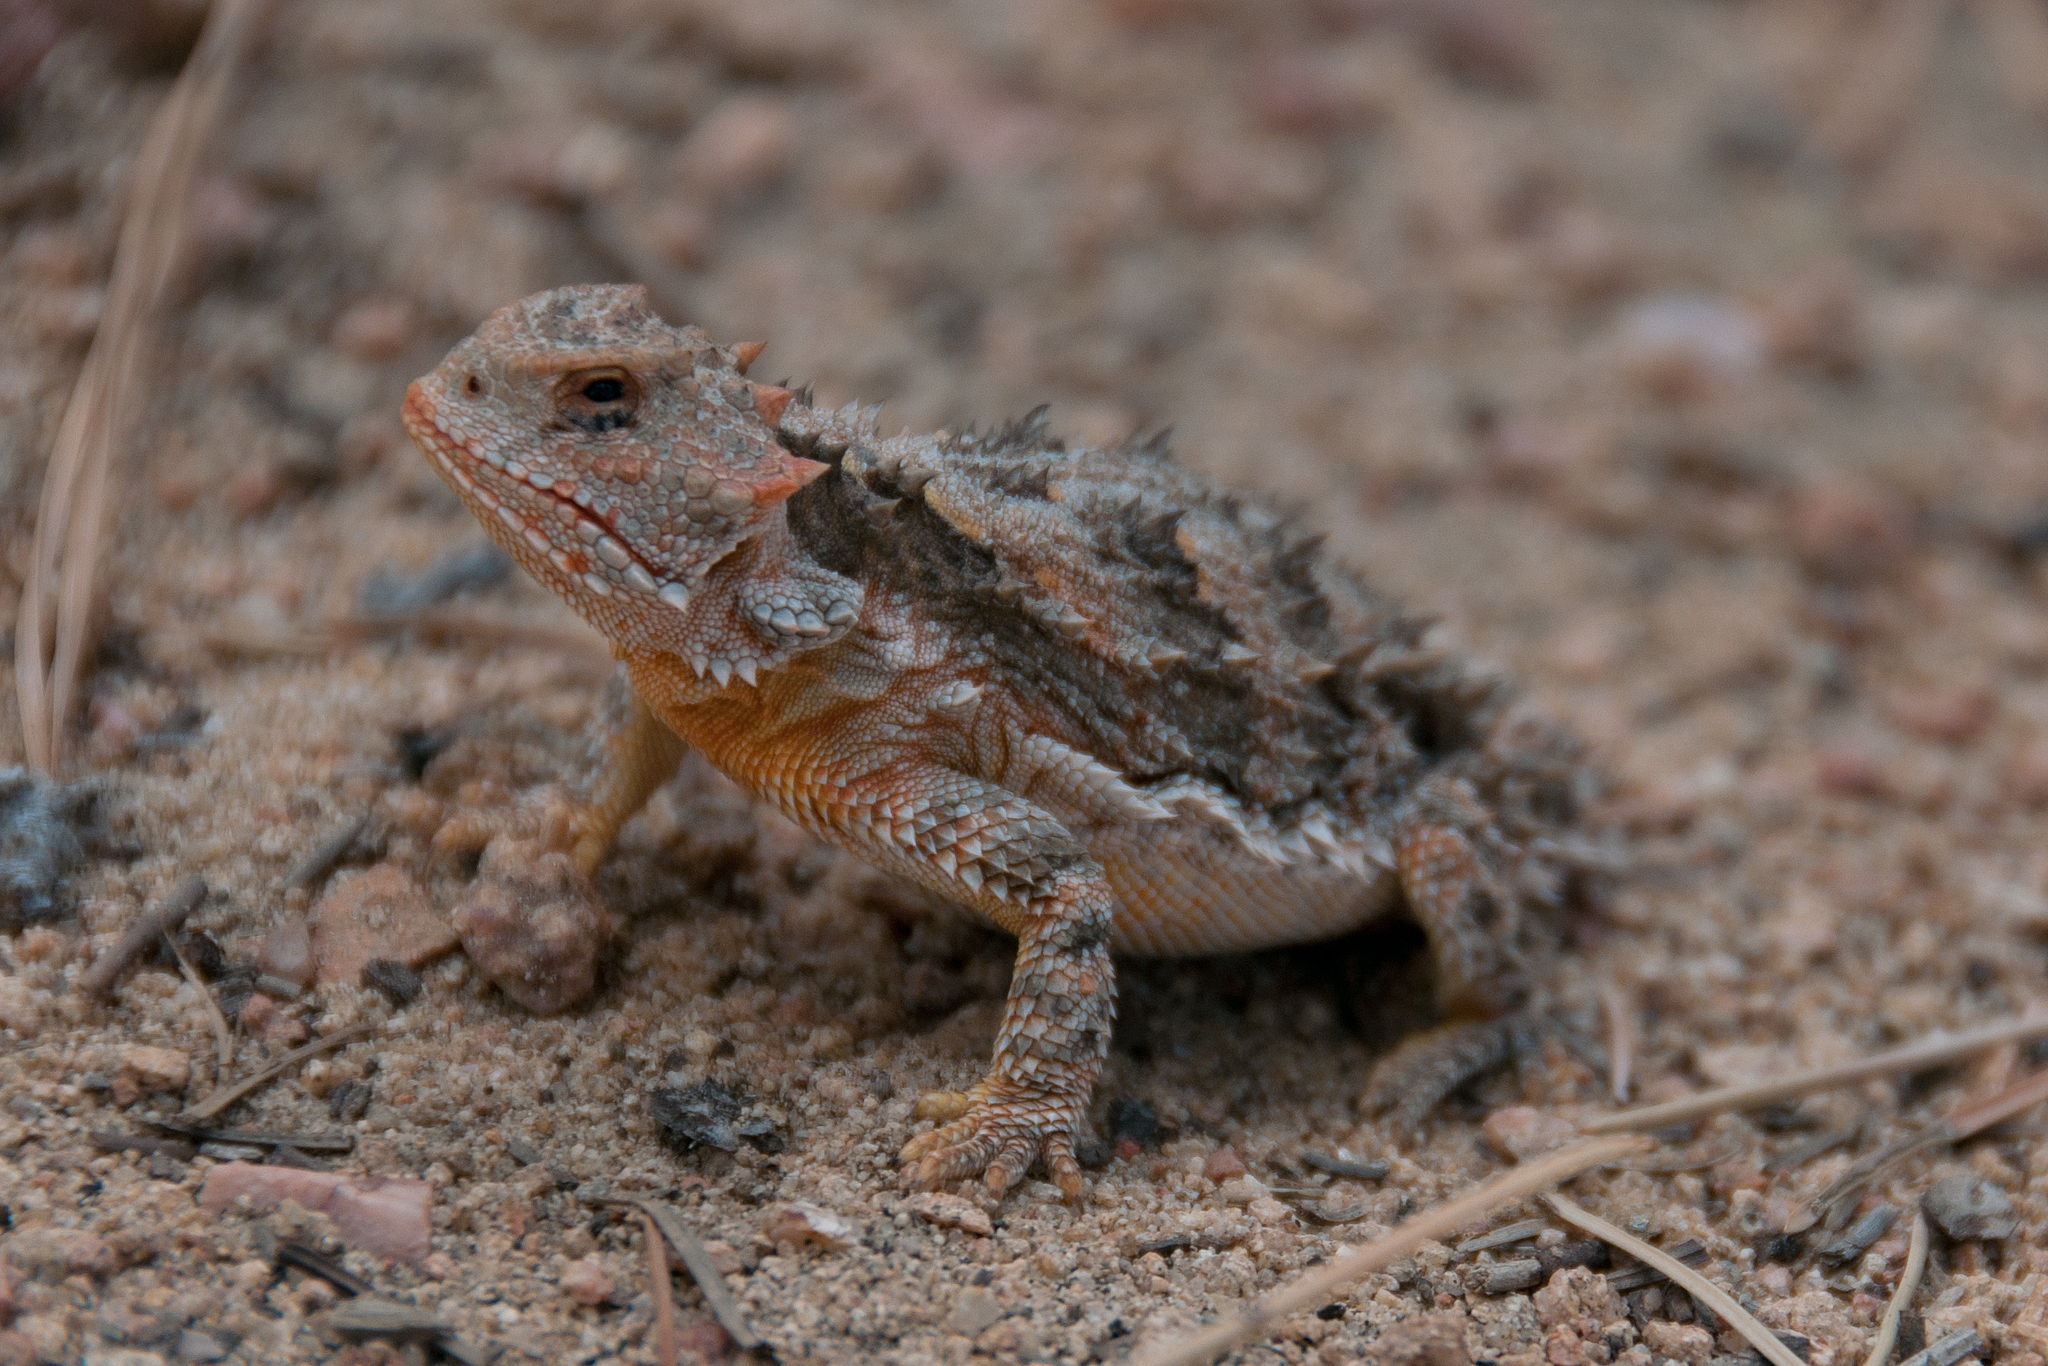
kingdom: Animalia
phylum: Chordata
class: Squamata
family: Phrynosomatidae
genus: Phrynosoma
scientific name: Phrynosoma hernandesi
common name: Greater short-horned lizard
